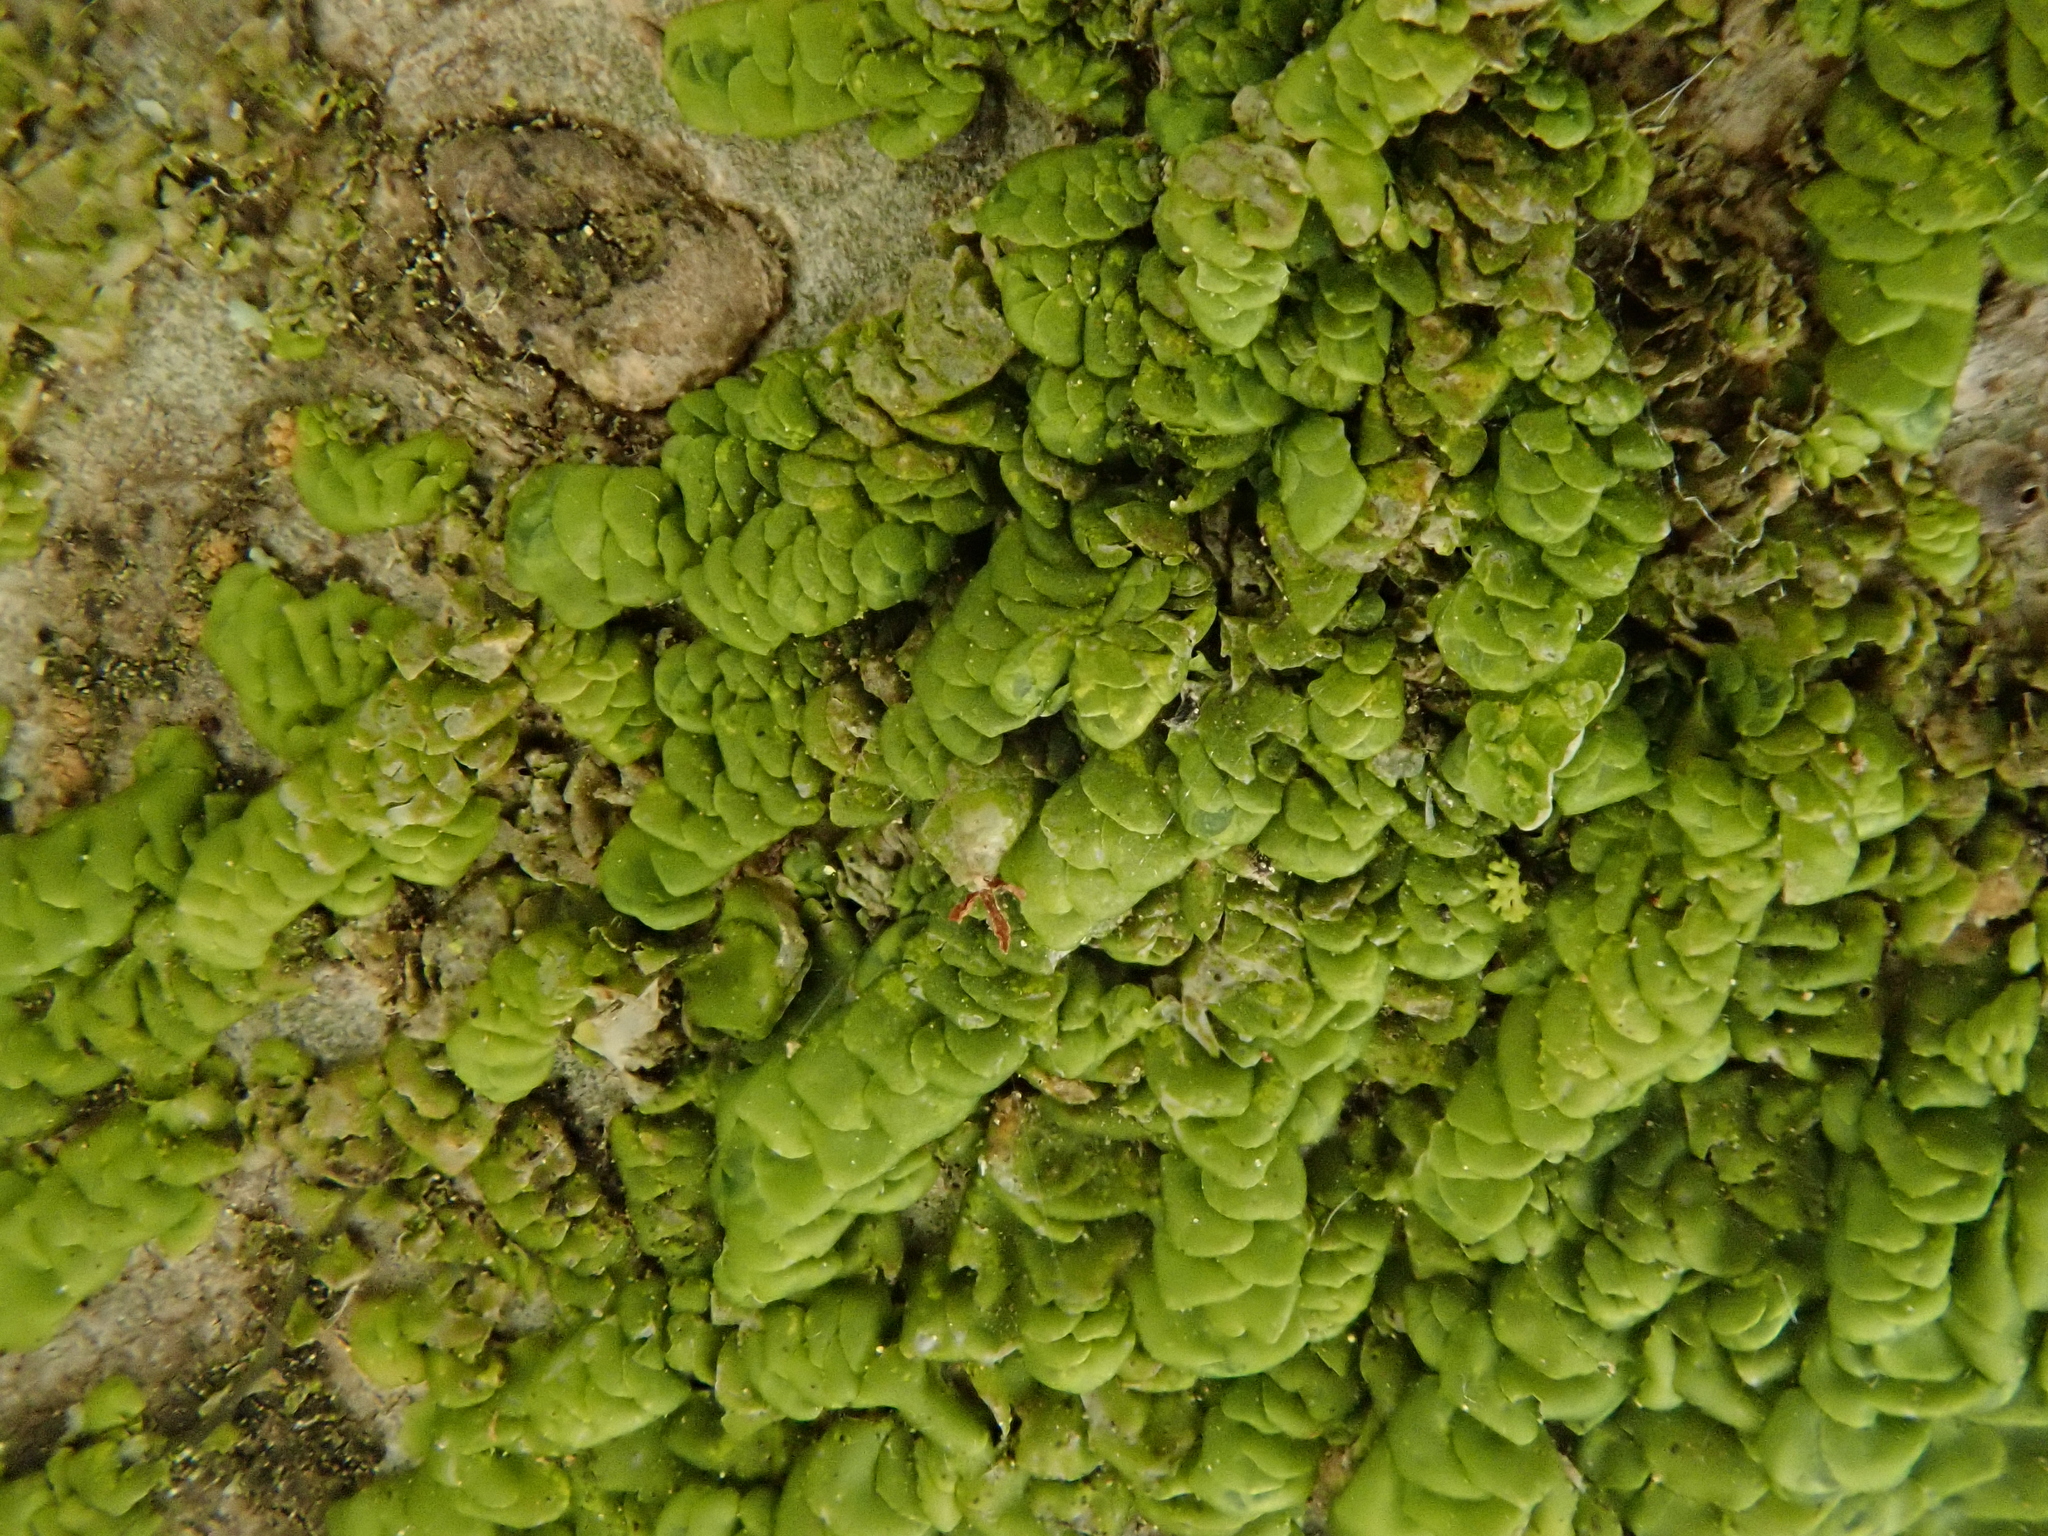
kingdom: Plantae
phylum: Marchantiophyta
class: Jungermanniopsida
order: Porellales
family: Radulaceae
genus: Radula
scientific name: Radula complanata
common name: Flat-leaved scalewort
